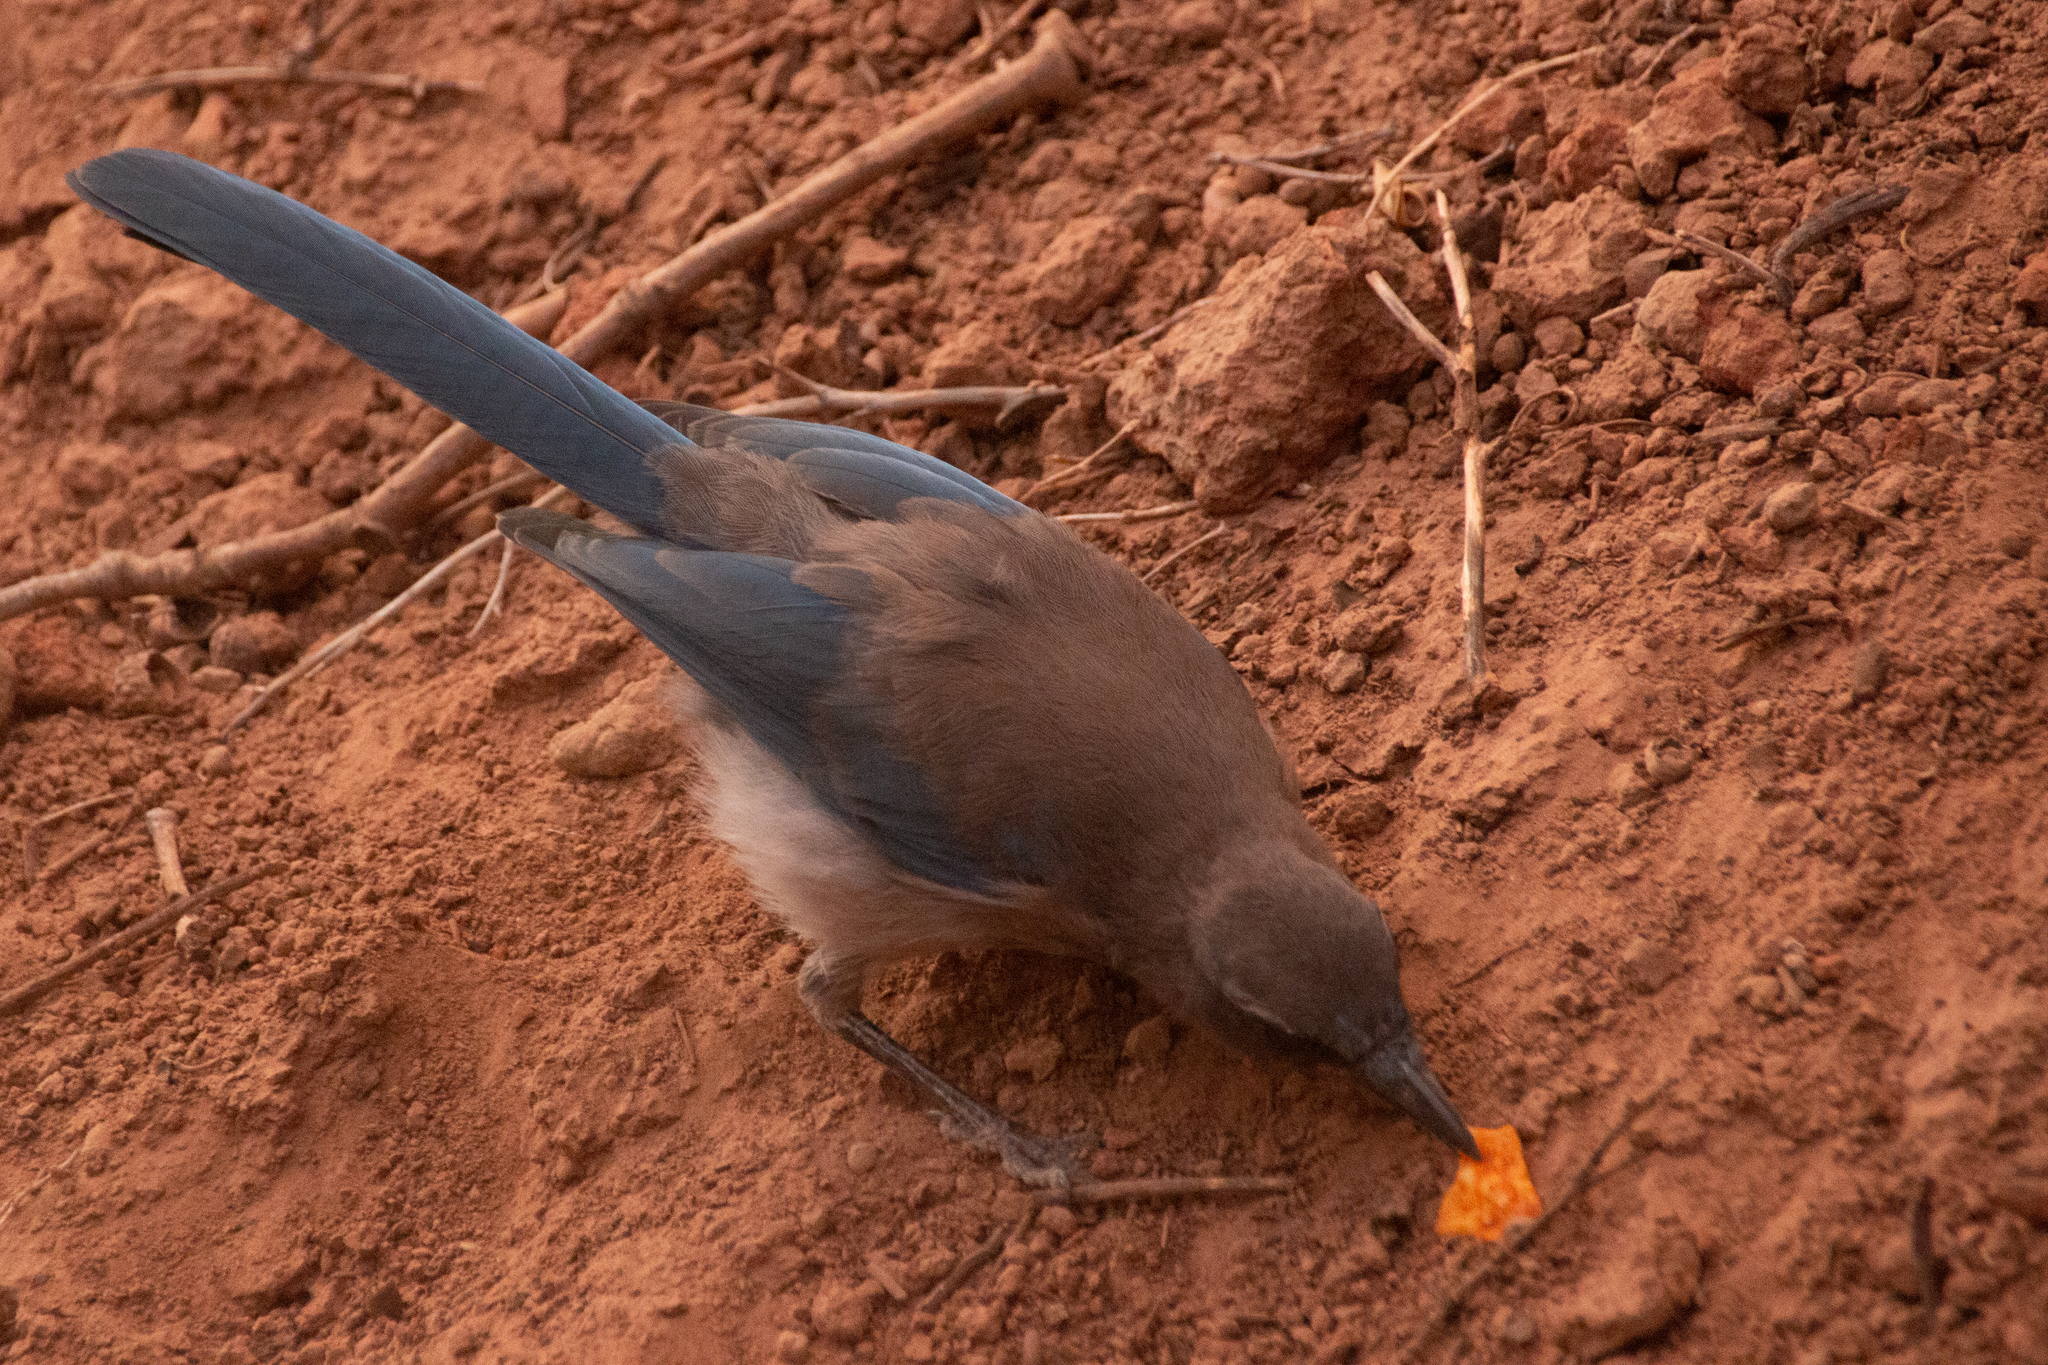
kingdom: Animalia
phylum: Chordata
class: Aves
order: Passeriformes
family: Corvidae
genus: Aphelocoma
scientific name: Aphelocoma woodhouseii
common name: Woodhouse's scrub-jay
